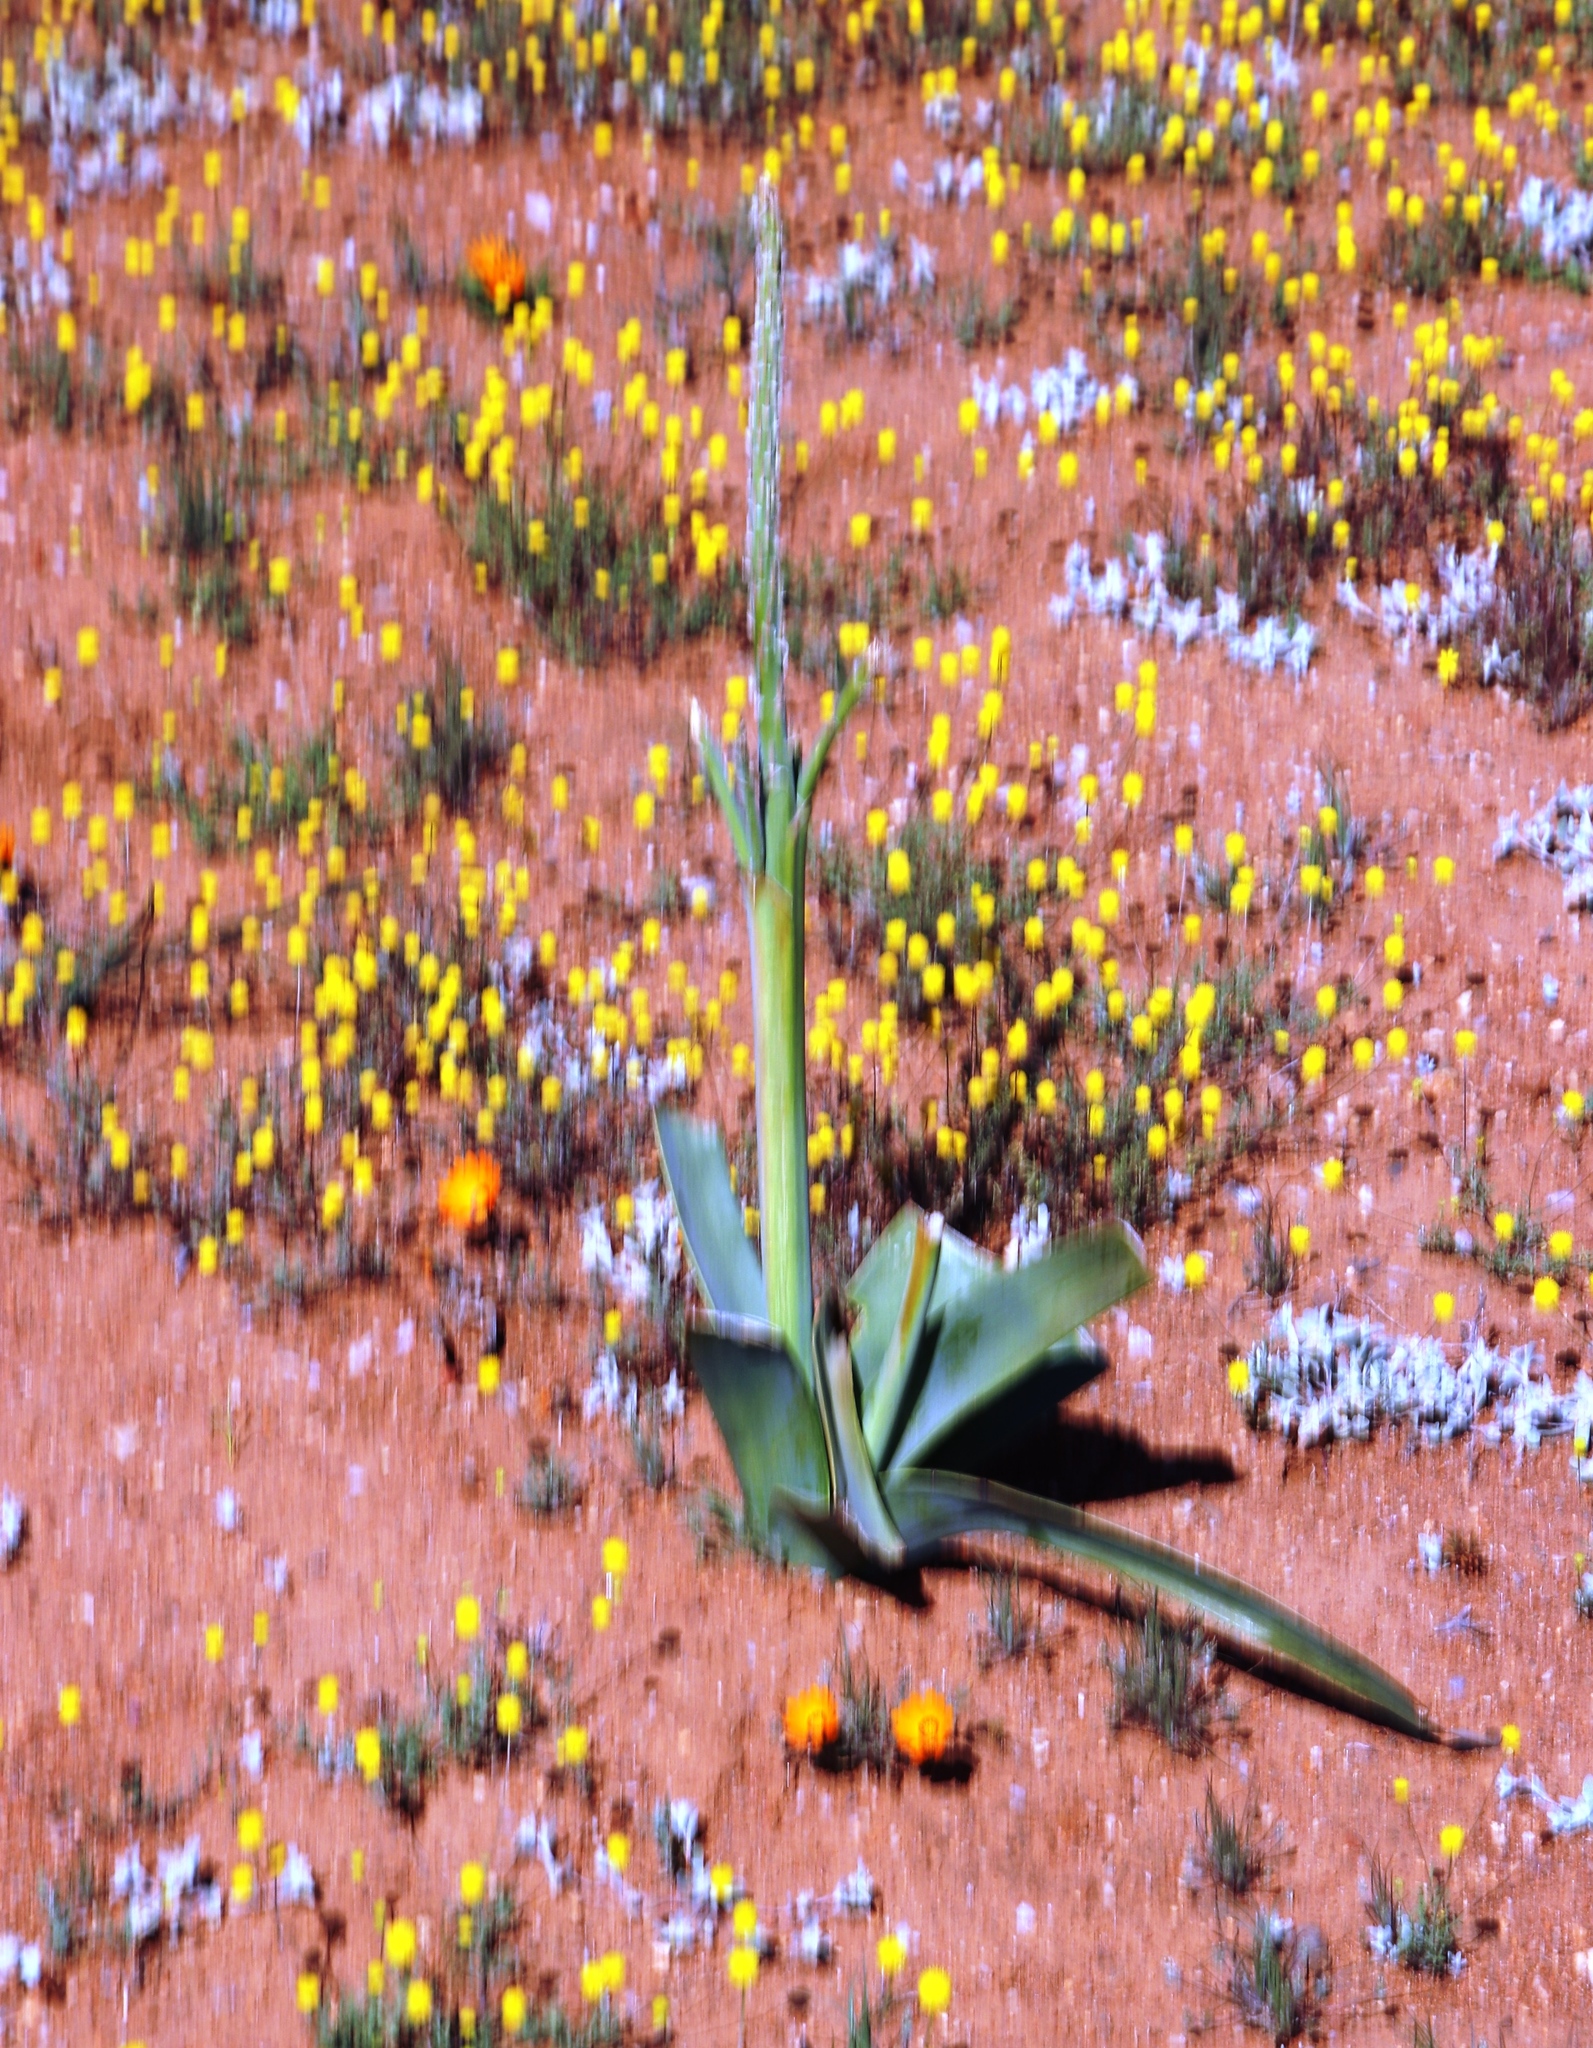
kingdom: Plantae
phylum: Tracheophyta
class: Liliopsida
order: Asparagales
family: Asphodelaceae
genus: Trachyandra
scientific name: Trachyandra falcata
